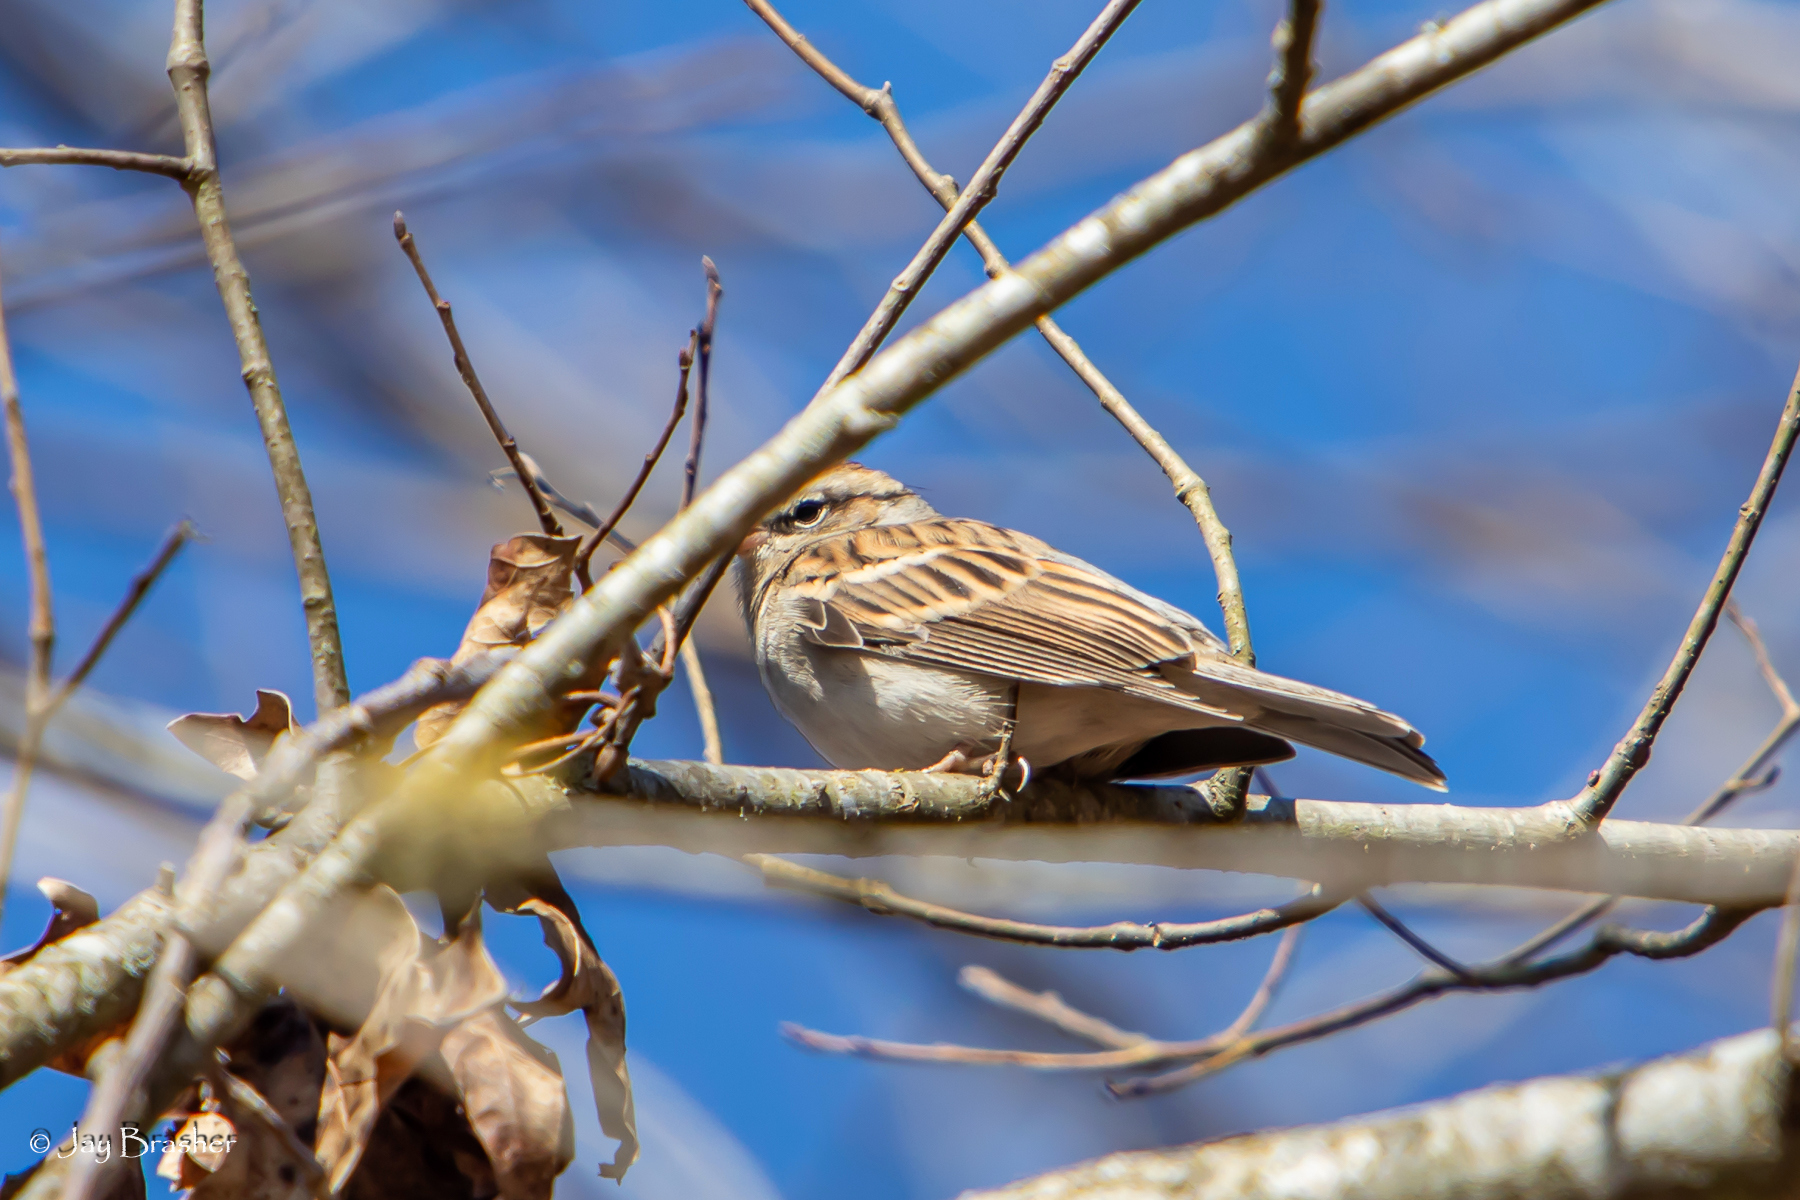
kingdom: Animalia
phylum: Chordata
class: Aves
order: Passeriformes
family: Passerellidae
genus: Spizella
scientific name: Spizella passerina
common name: Chipping sparrow
